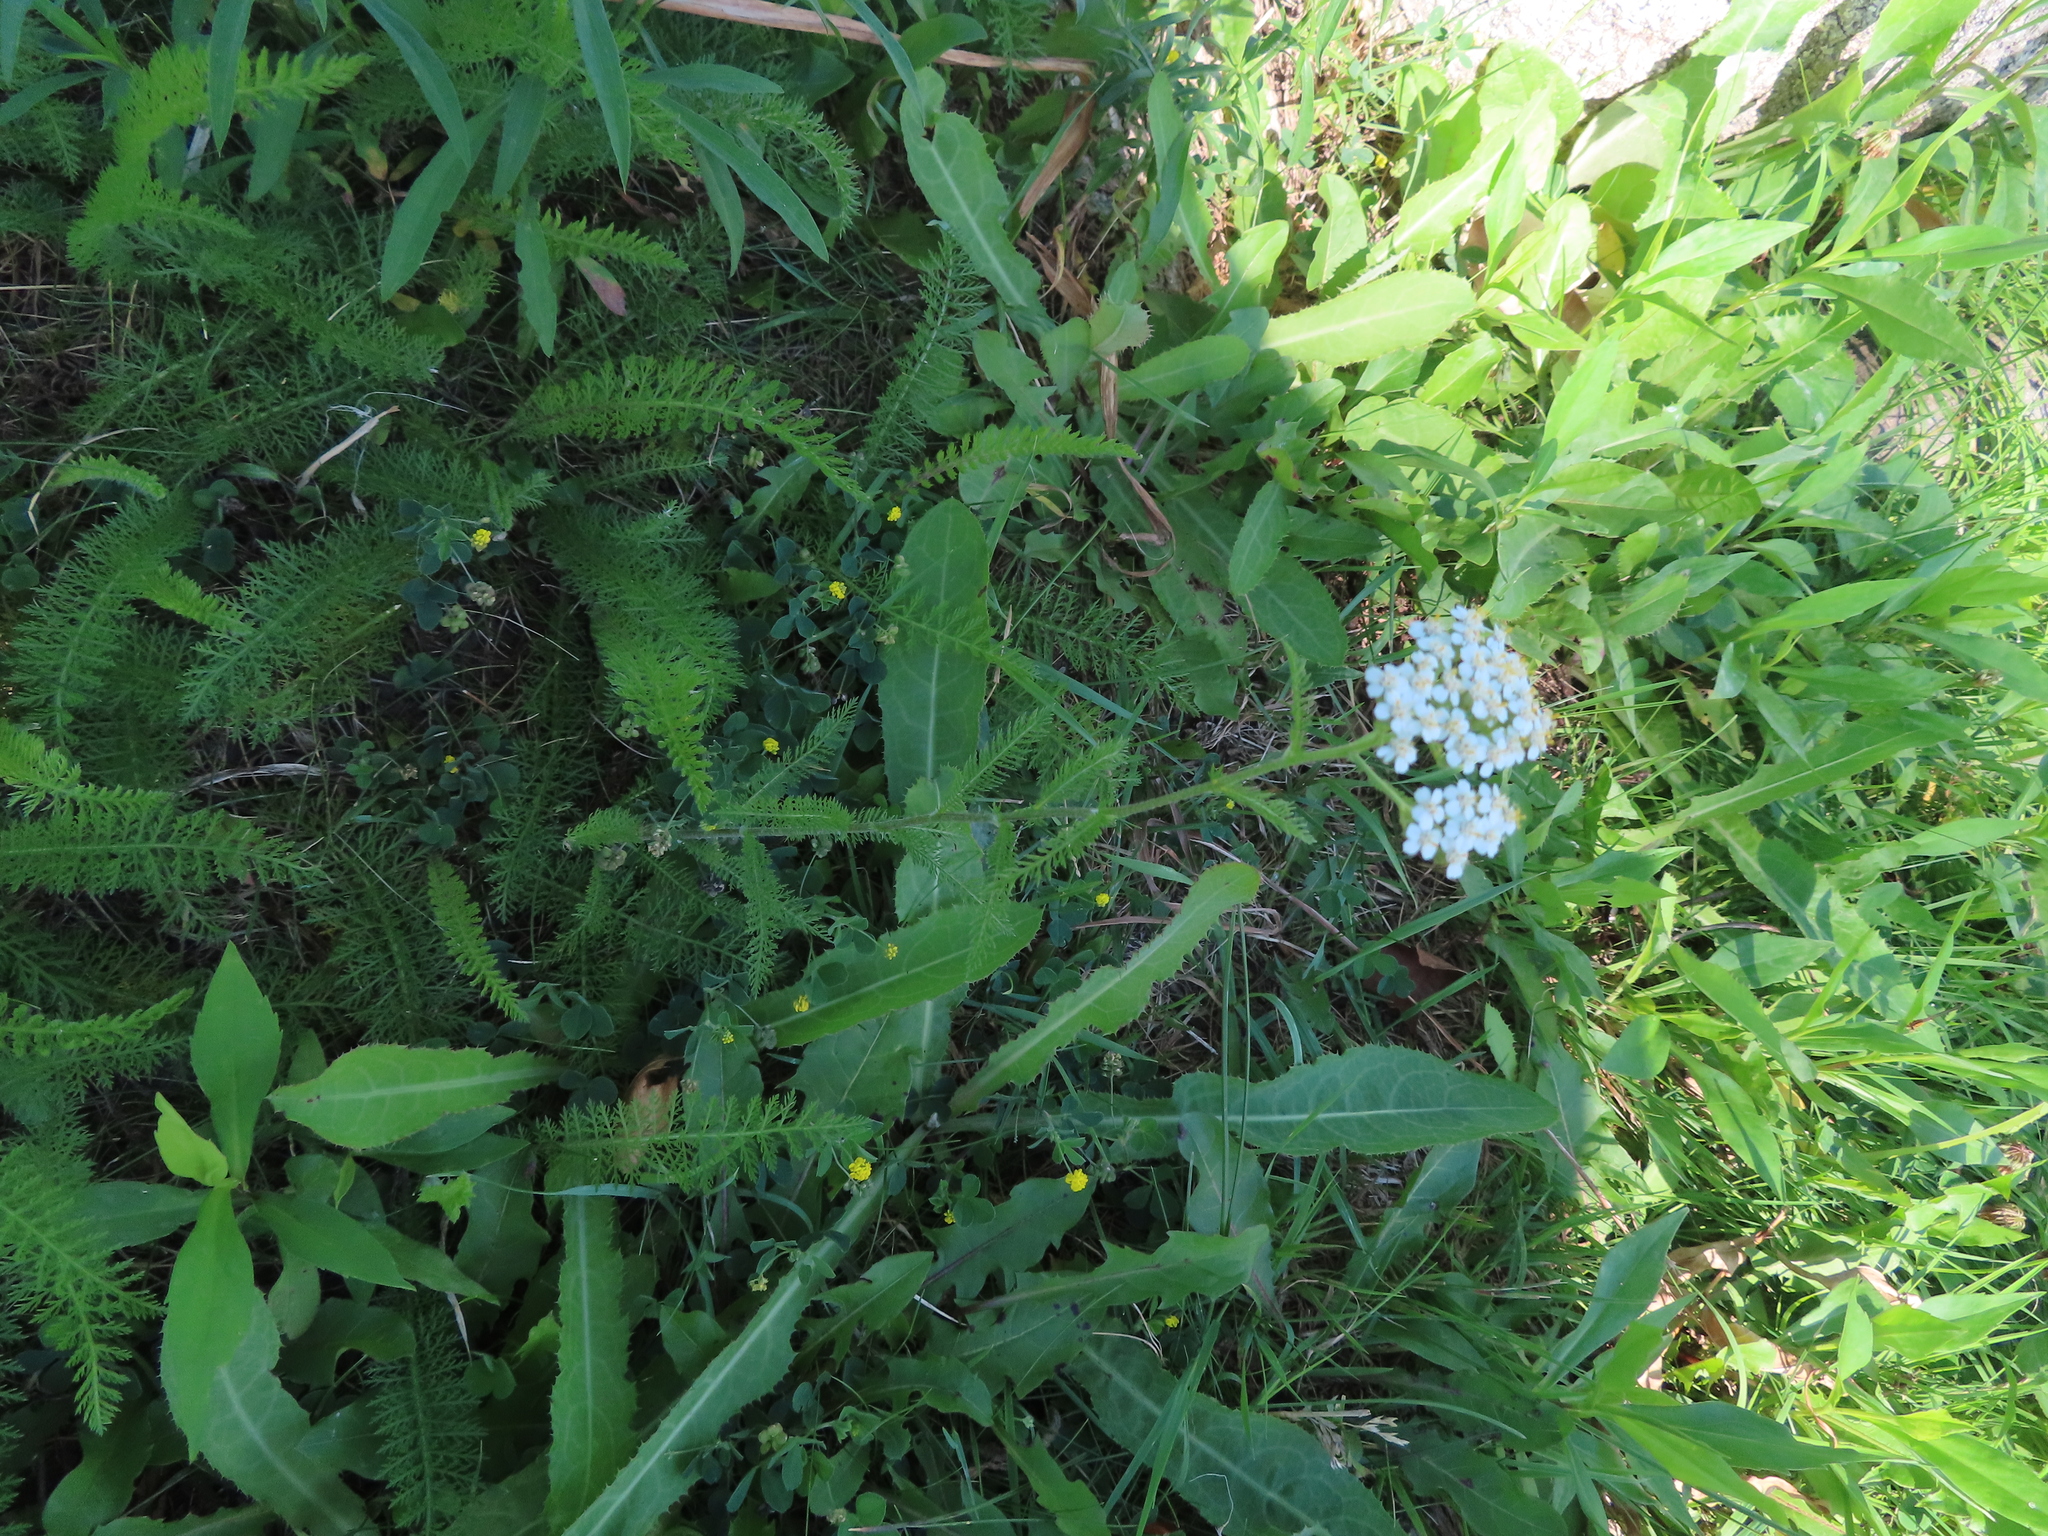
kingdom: Plantae
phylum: Tracheophyta
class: Magnoliopsida
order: Asterales
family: Asteraceae
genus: Achillea
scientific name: Achillea millefolium
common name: Yarrow
